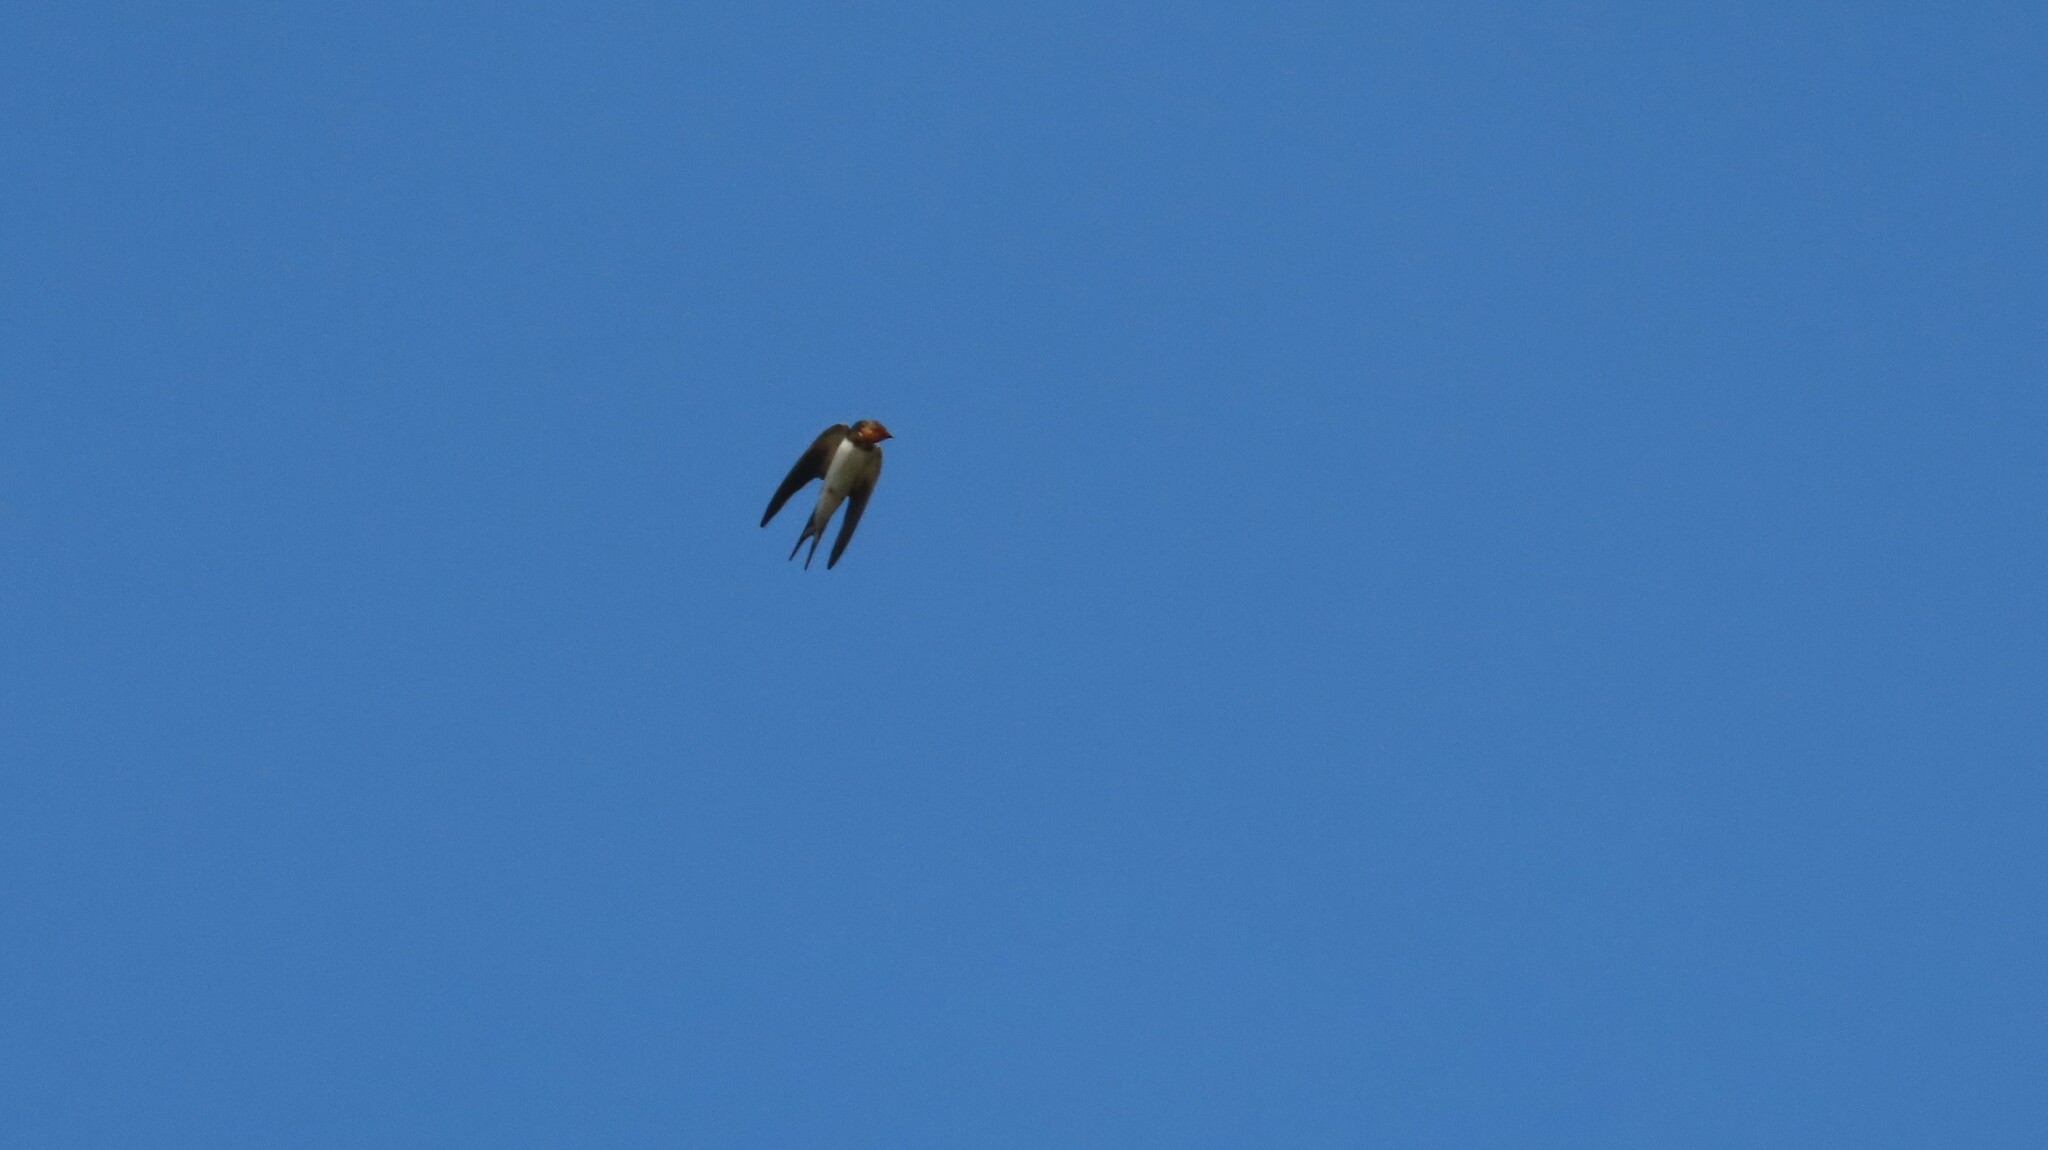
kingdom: Animalia
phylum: Chordata
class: Aves
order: Passeriformes
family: Hirundinidae
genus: Hirundo
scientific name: Hirundo rustica
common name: Barn swallow
